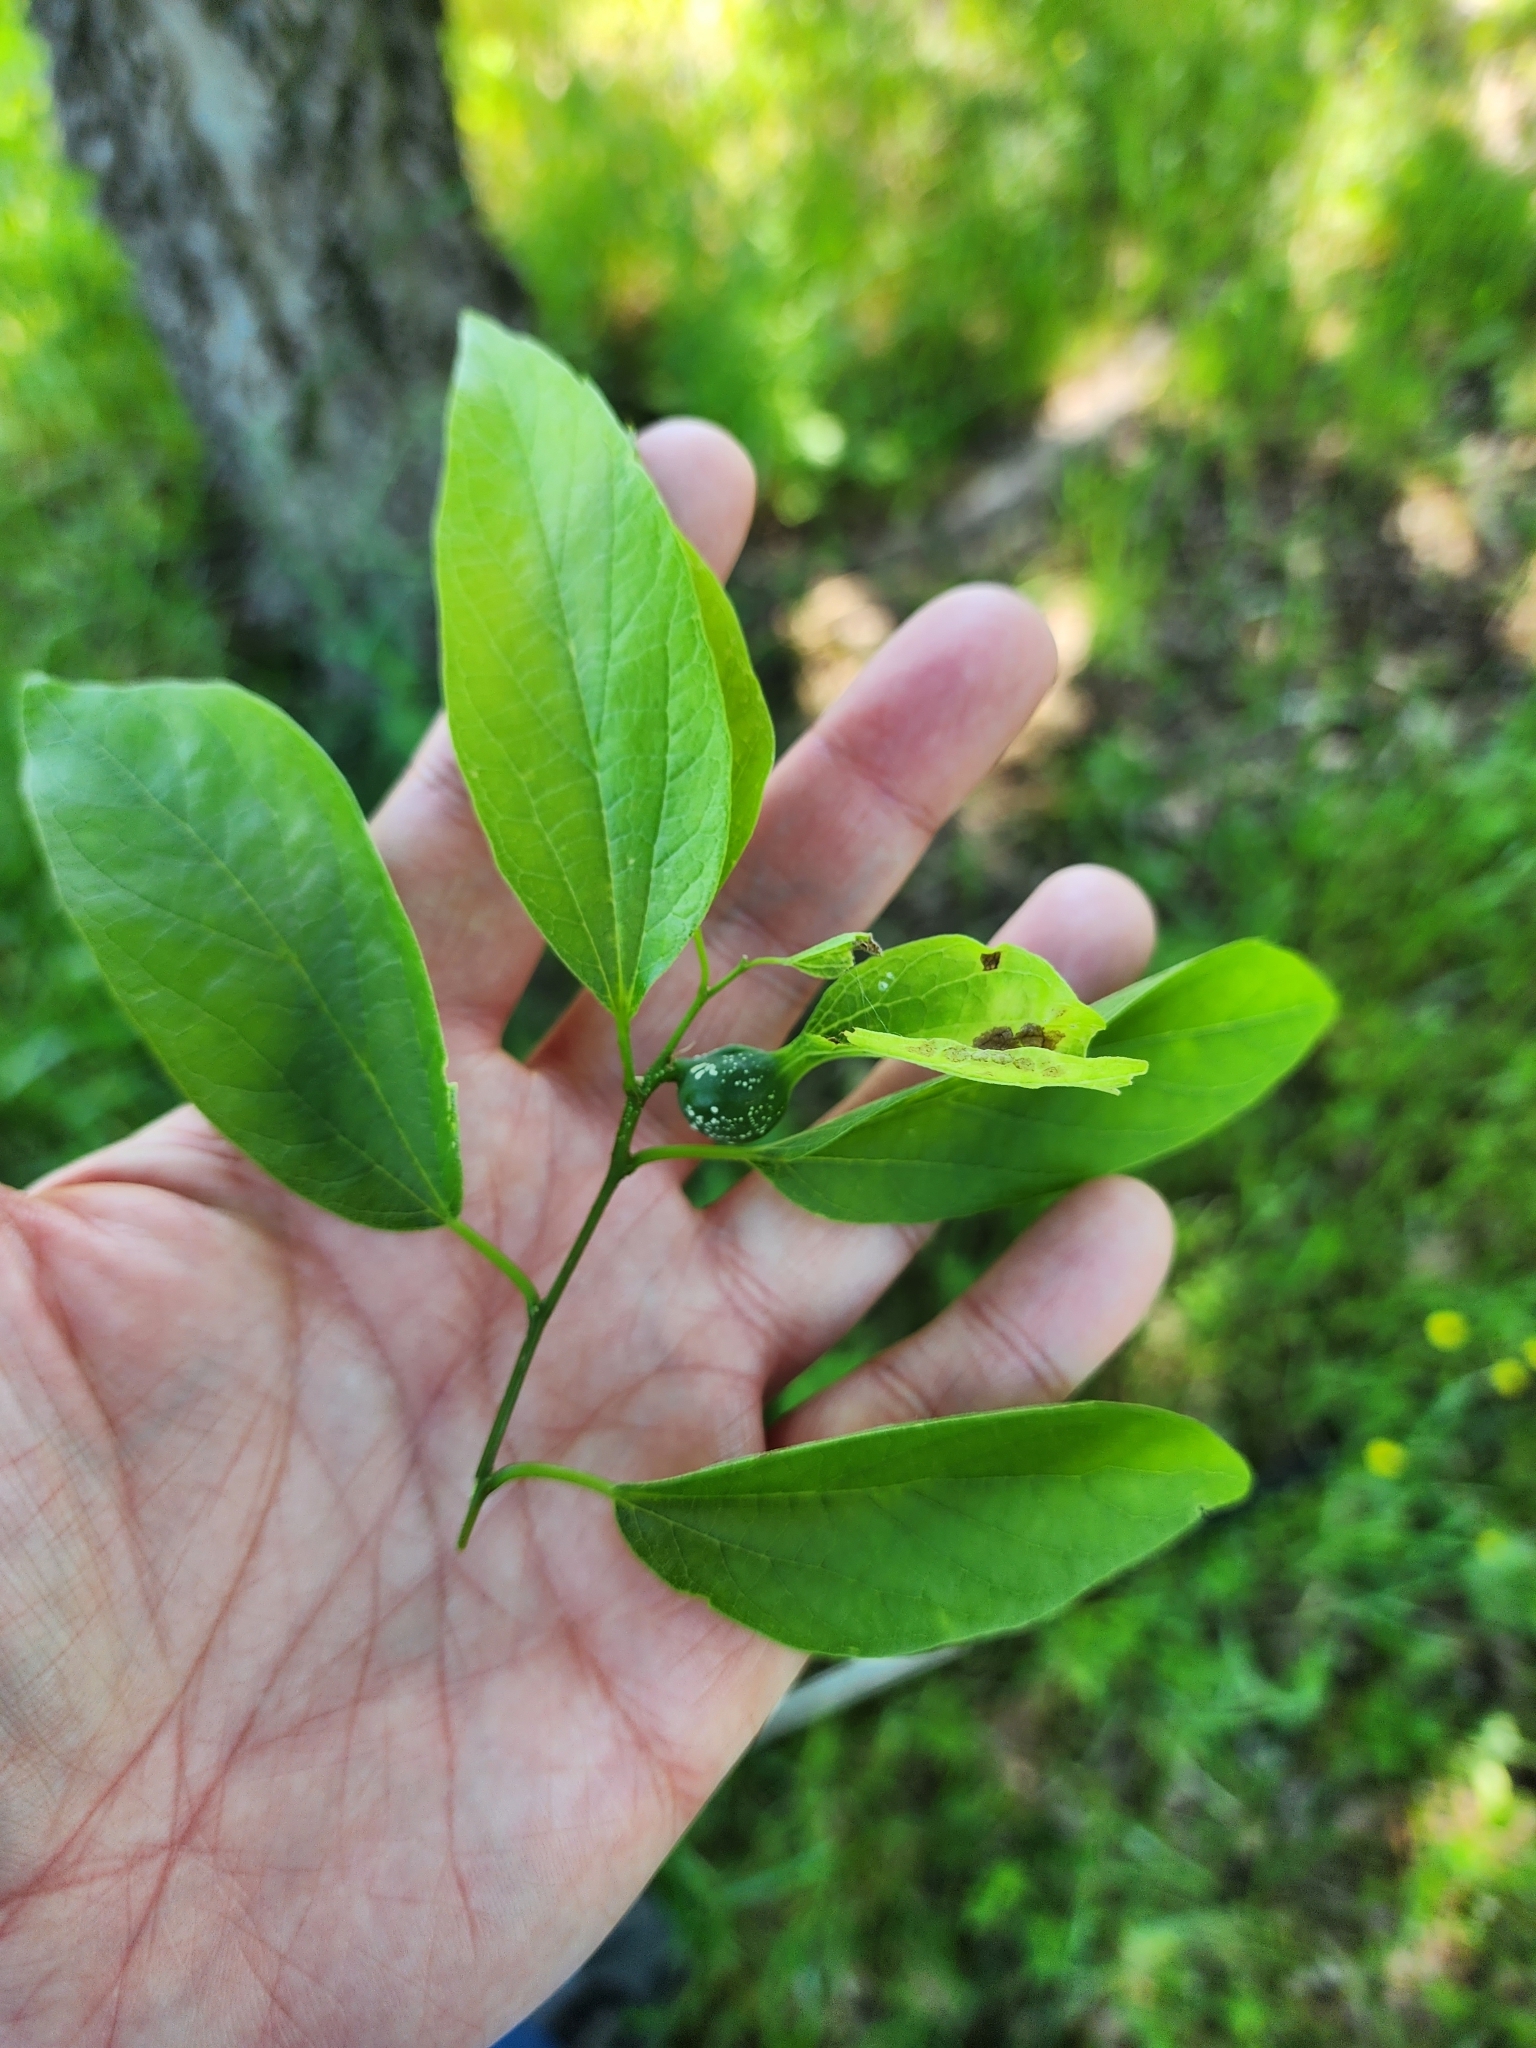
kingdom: Plantae
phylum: Tracheophyta
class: Magnoliopsida
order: Rosales
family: Cannabaceae
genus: Celtis
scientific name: Celtis laevigata
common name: Sugarberry
